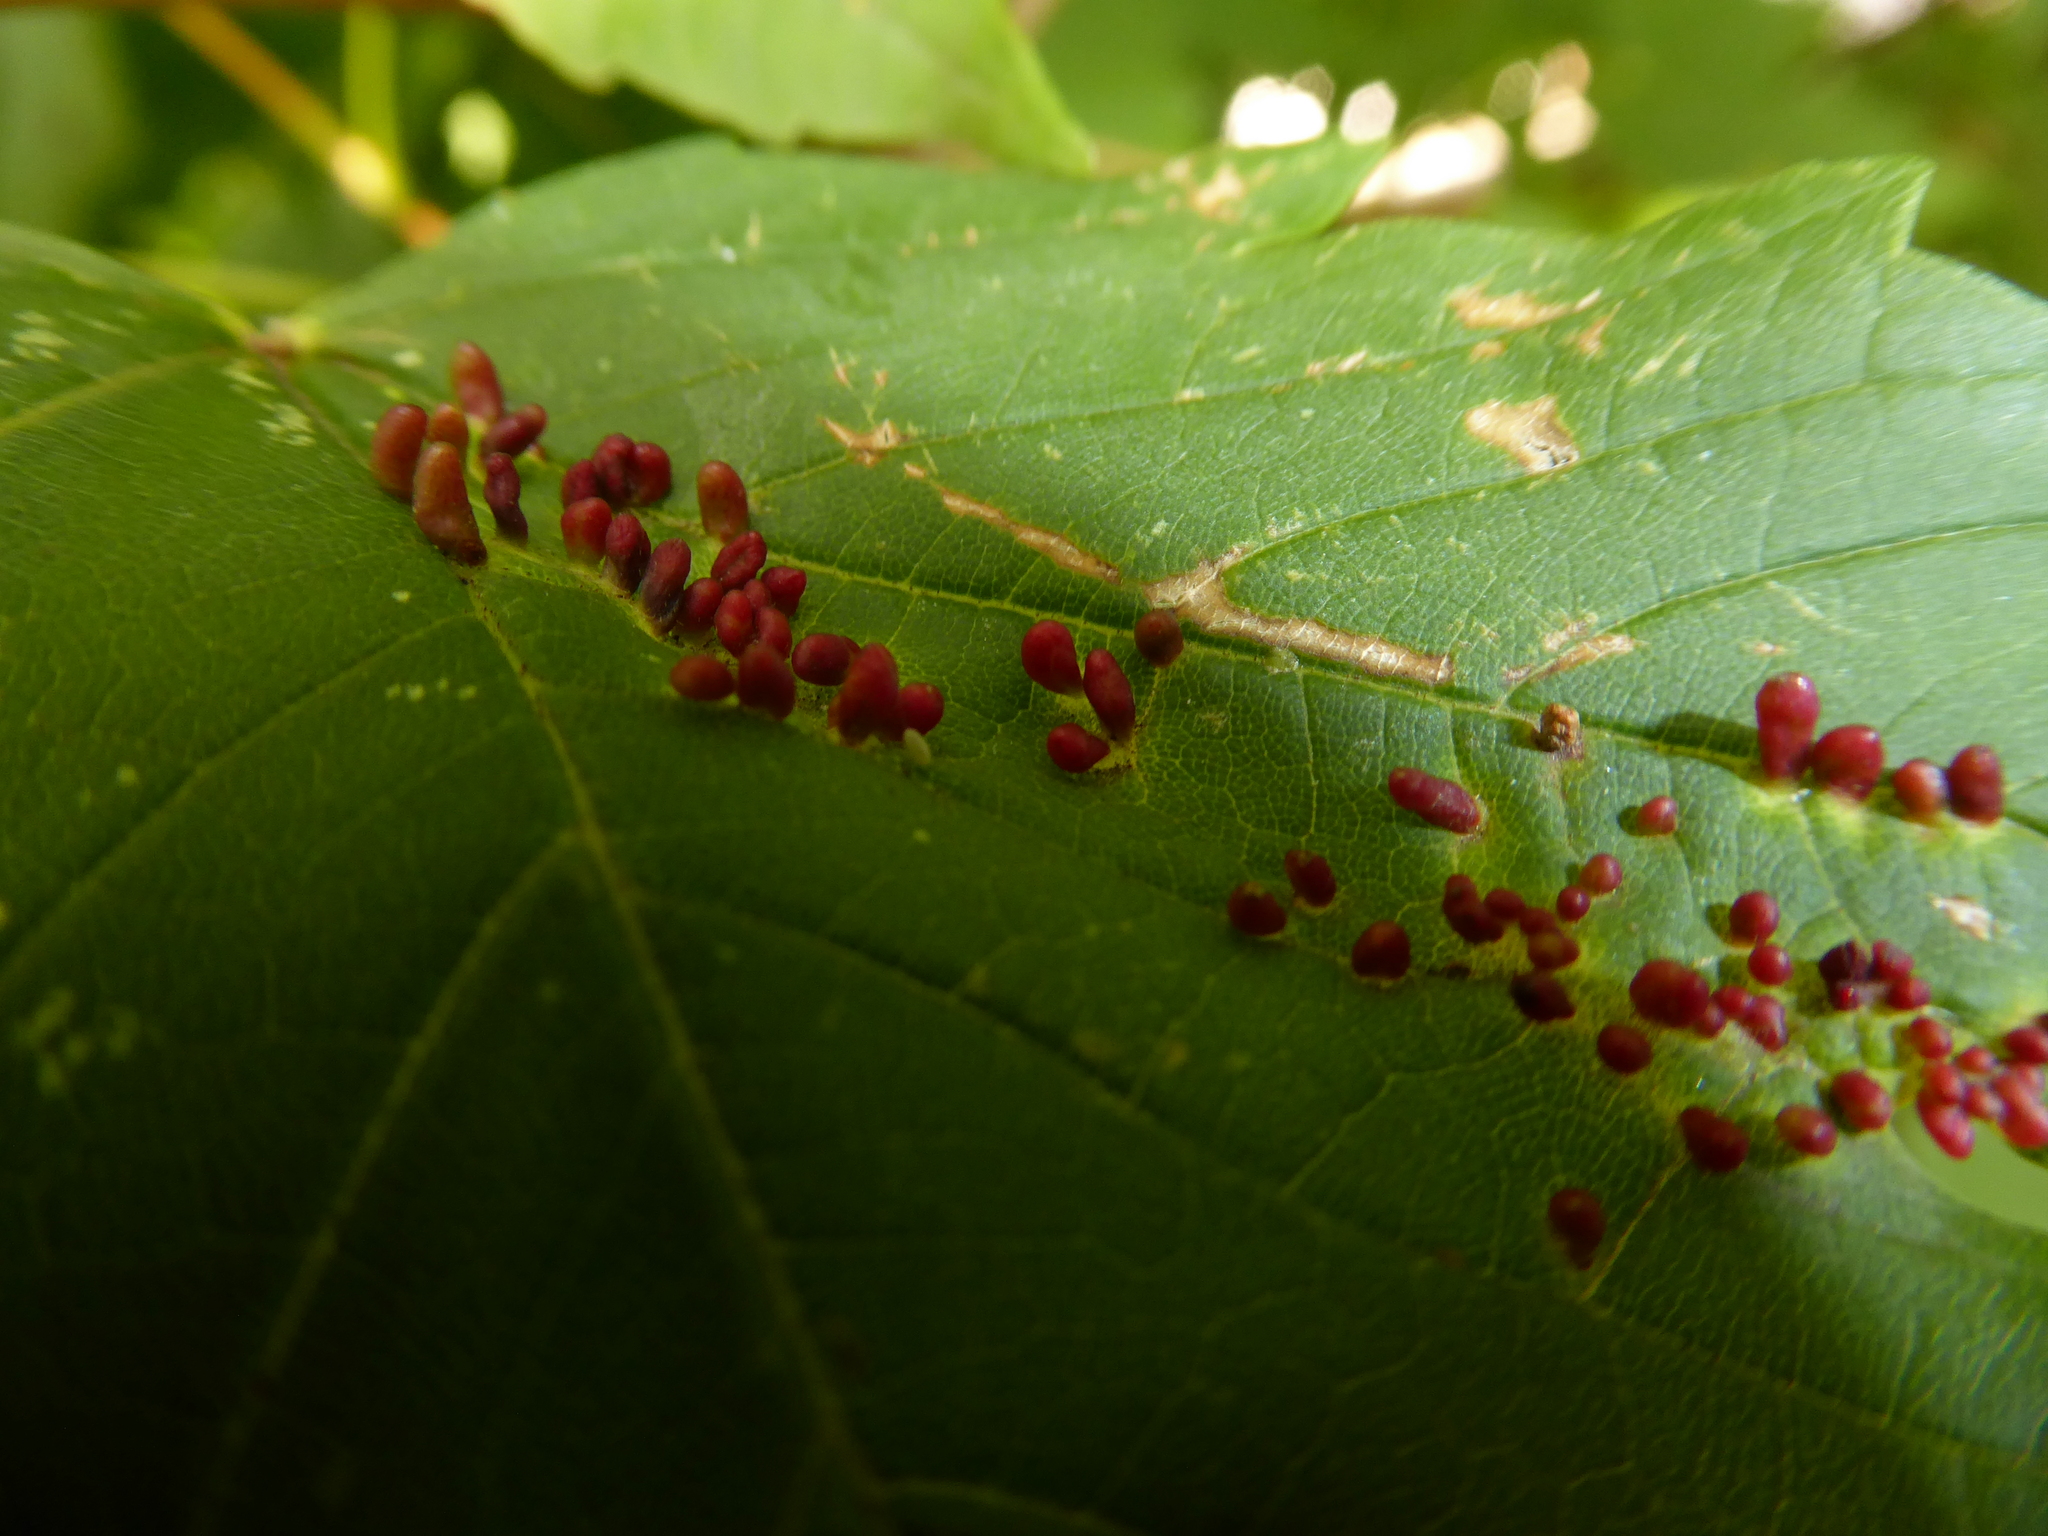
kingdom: Animalia
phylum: Arthropoda
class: Arachnida
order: Trombidiformes
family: Eriophyidae
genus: Aceria
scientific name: Aceria cephaloneus
